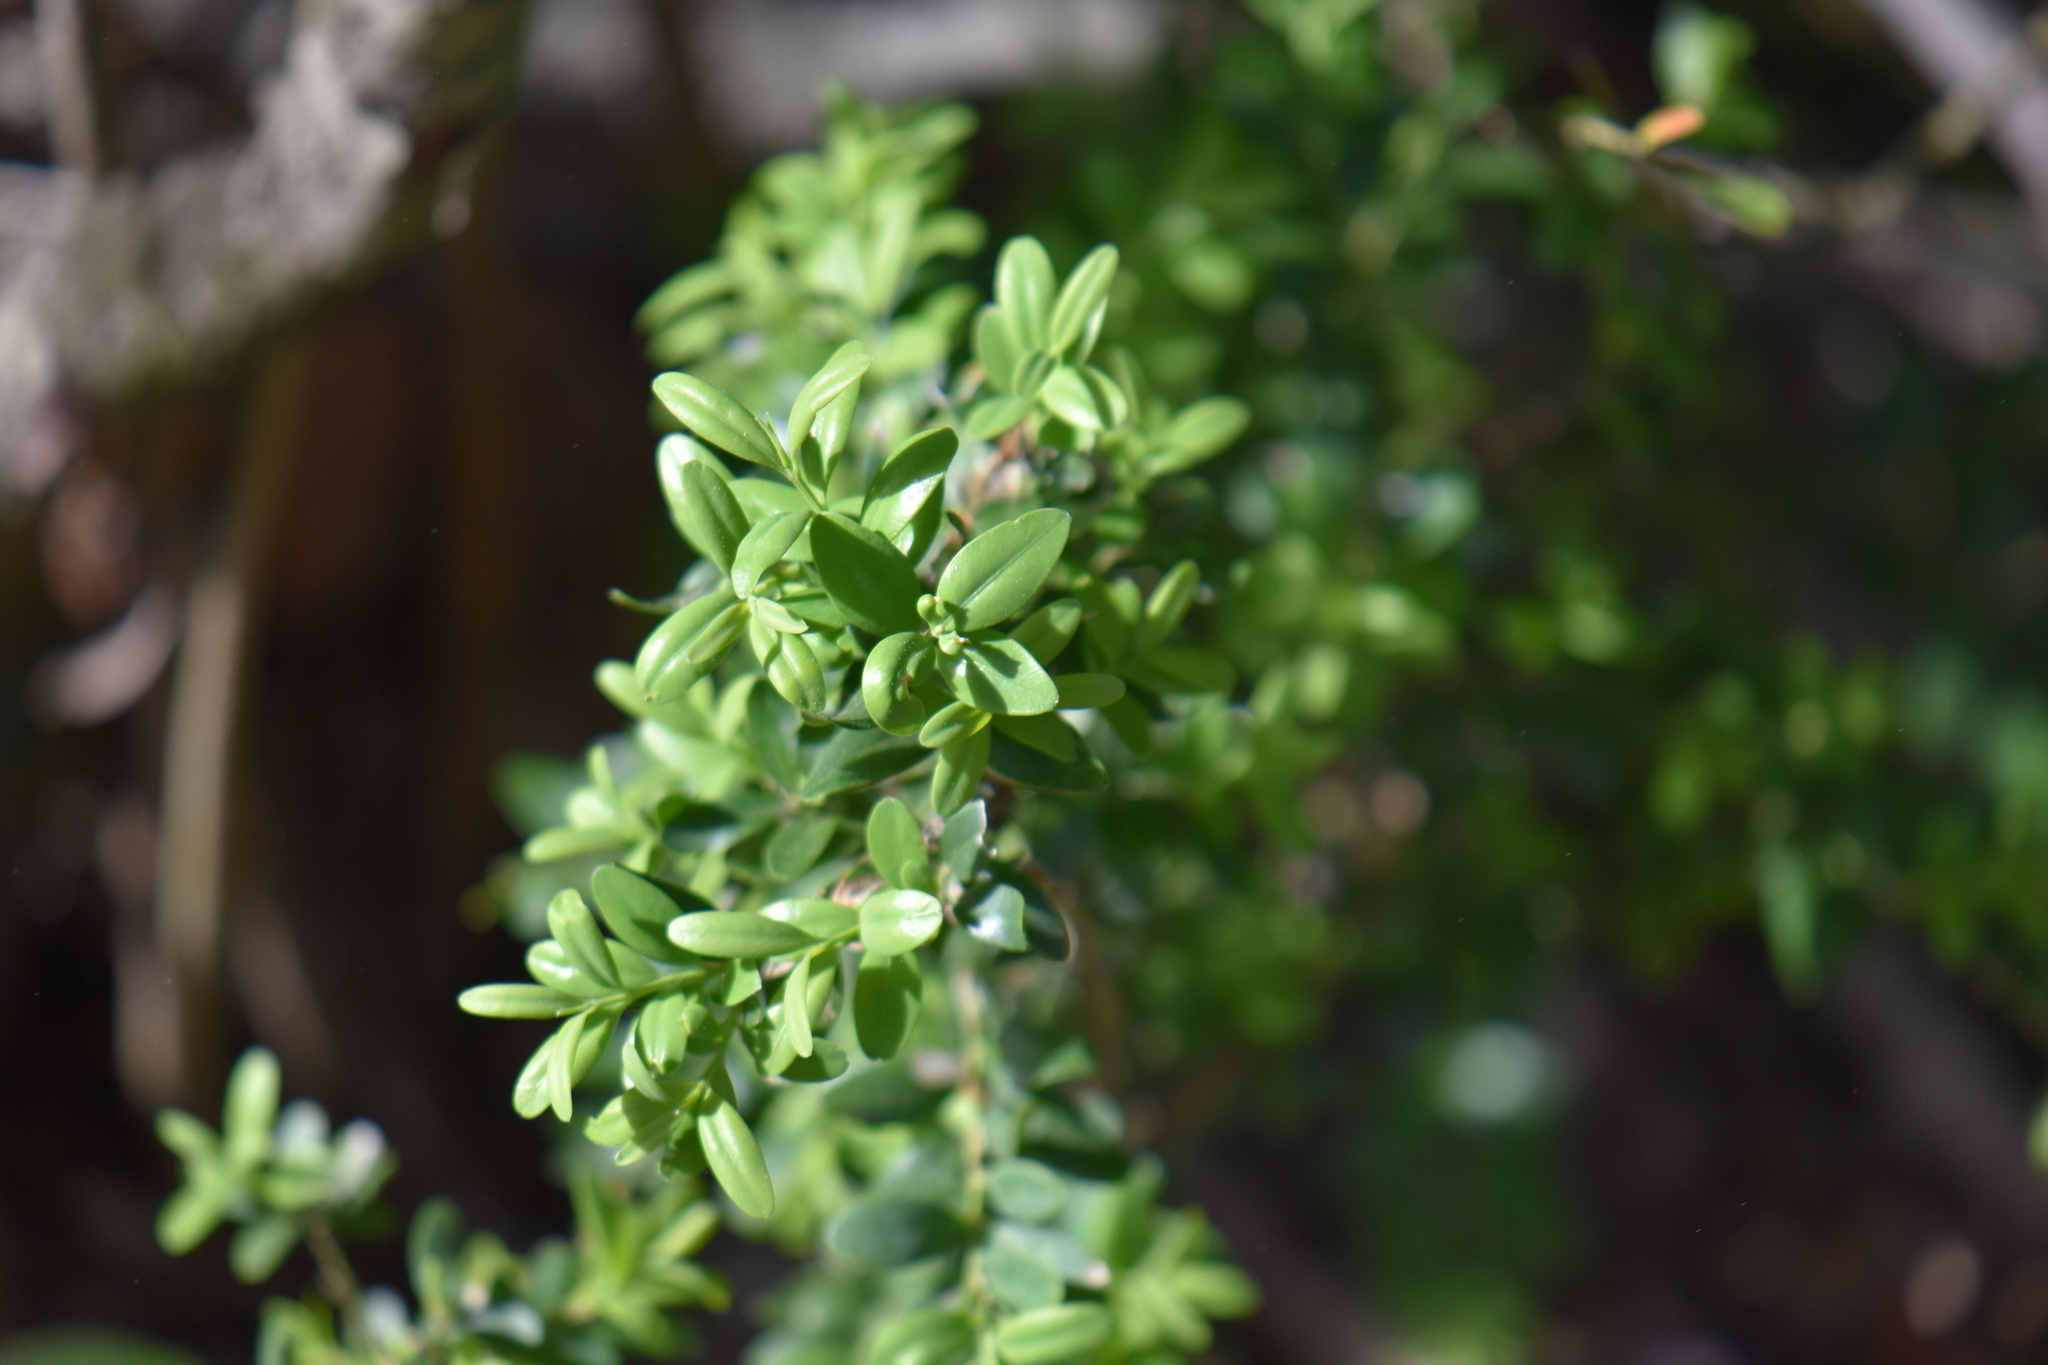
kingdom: Plantae
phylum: Tracheophyta
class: Magnoliopsida
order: Buxales
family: Buxaceae
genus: Buxus
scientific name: Buxus sempervirens
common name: Box
